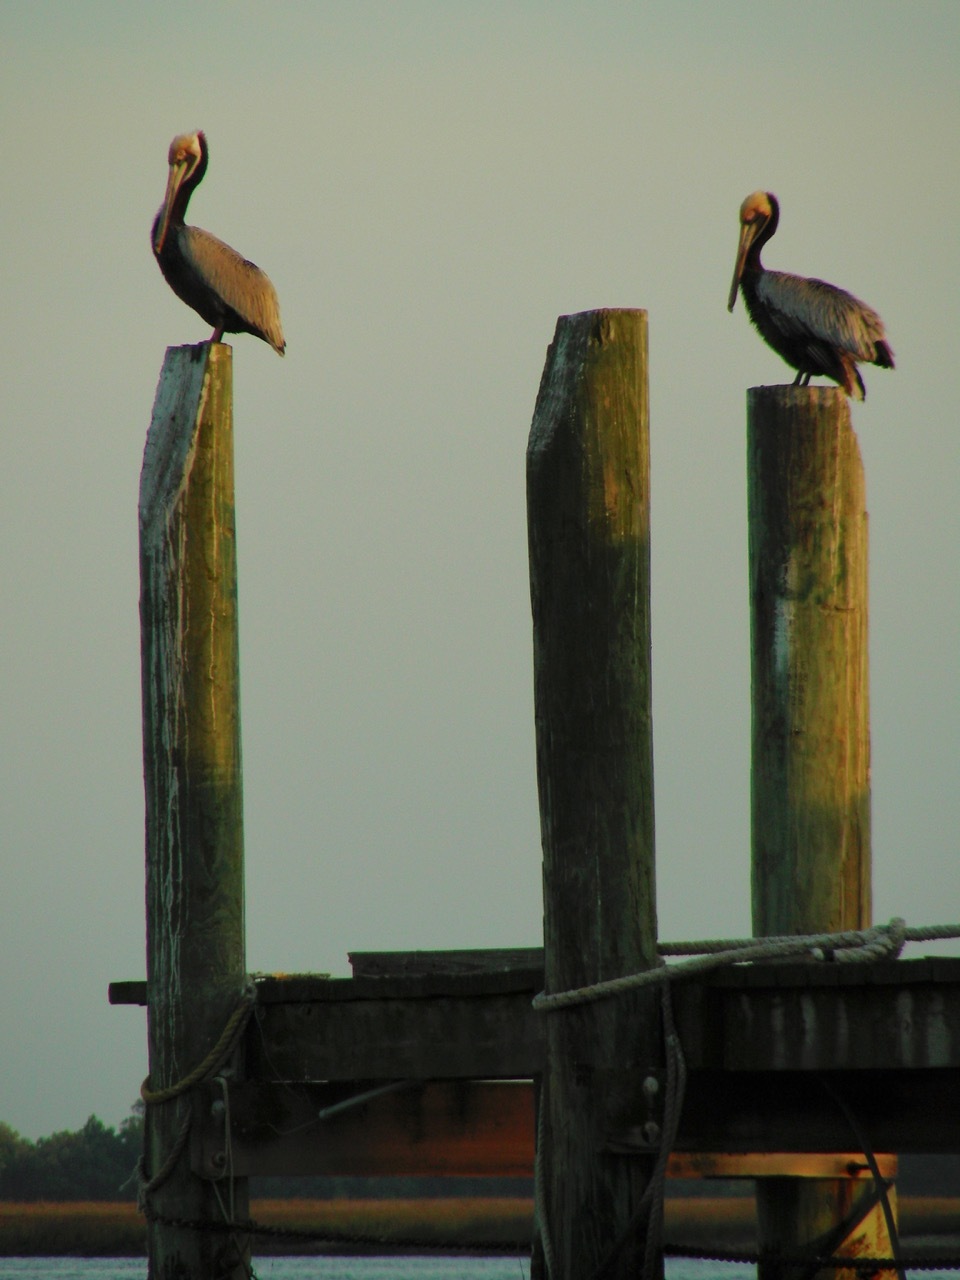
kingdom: Animalia
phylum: Chordata
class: Aves
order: Pelecaniformes
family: Pelecanidae
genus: Pelecanus
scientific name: Pelecanus occidentalis
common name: Brown pelican
